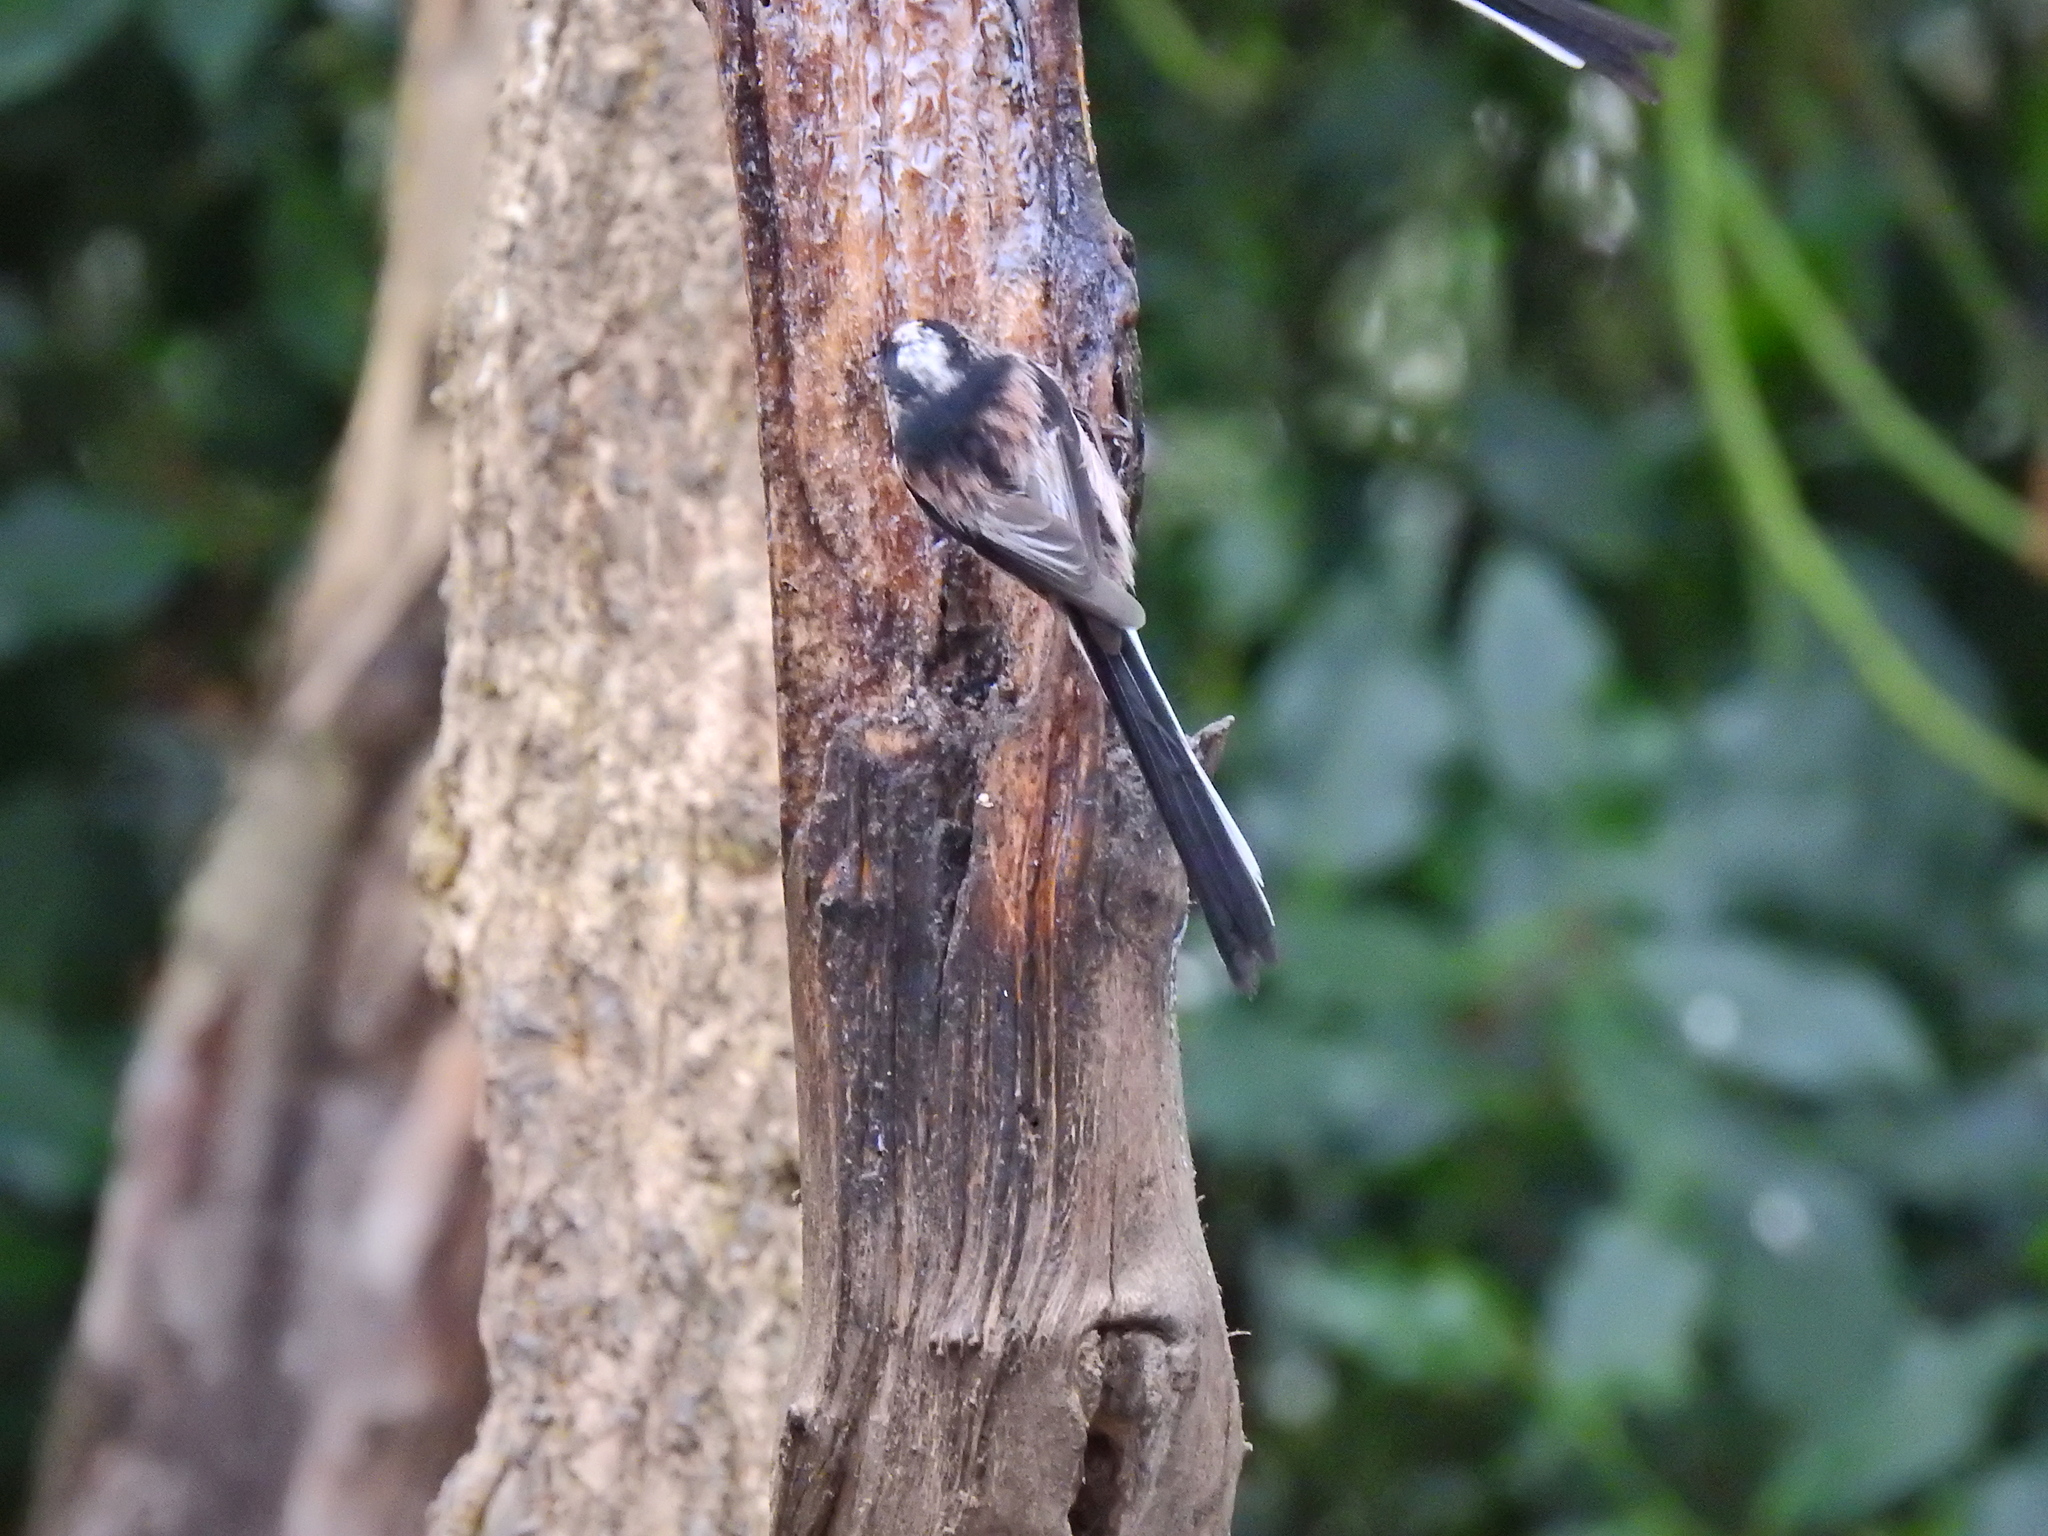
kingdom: Animalia
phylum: Chordata
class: Aves
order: Passeriformes
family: Aegithalidae
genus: Aegithalos
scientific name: Aegithalos caudatus
